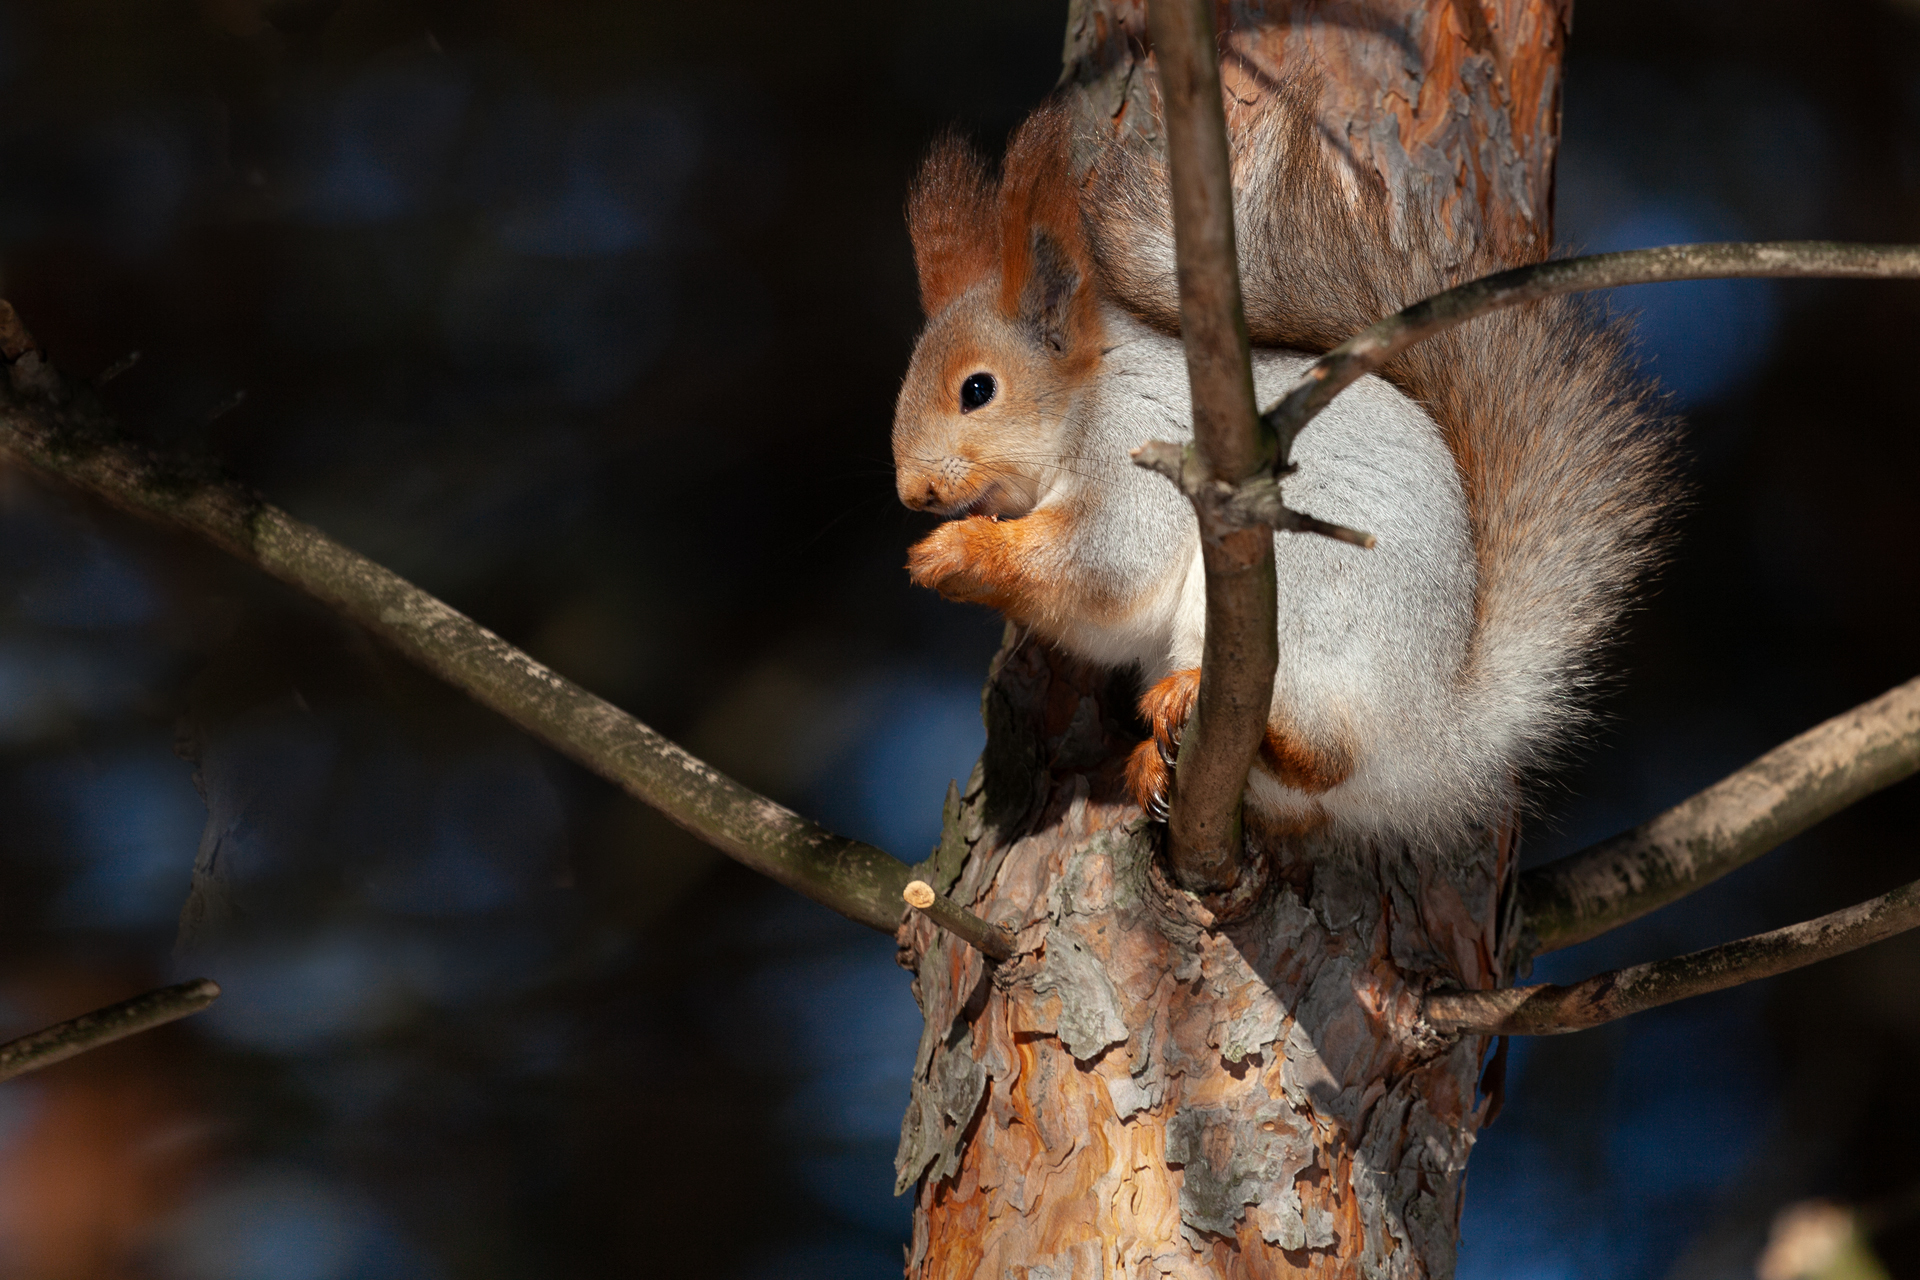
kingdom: Animalia
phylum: Chordata
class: Mammalia
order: Rodentia
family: Sciuridae
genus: Sciurus
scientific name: Sciurus vulgaris
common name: Eurasian red squirrel
